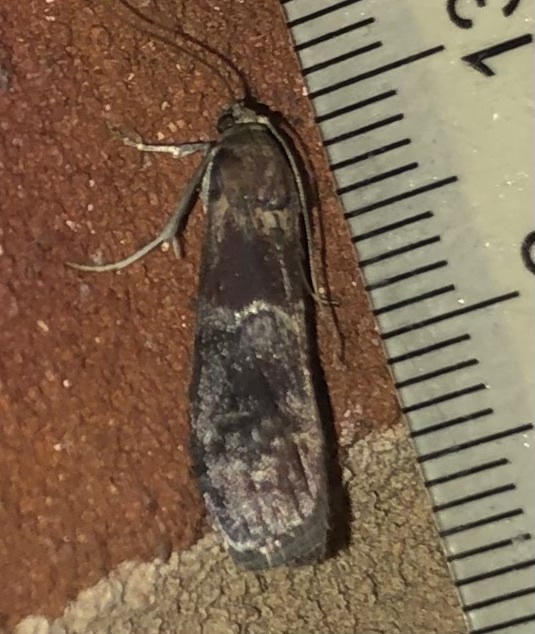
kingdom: Animalia
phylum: Arthropoda
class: Insecta
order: Lepidoptera
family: Pyralidae
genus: Euzophera
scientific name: Euzophera ostricolorella
